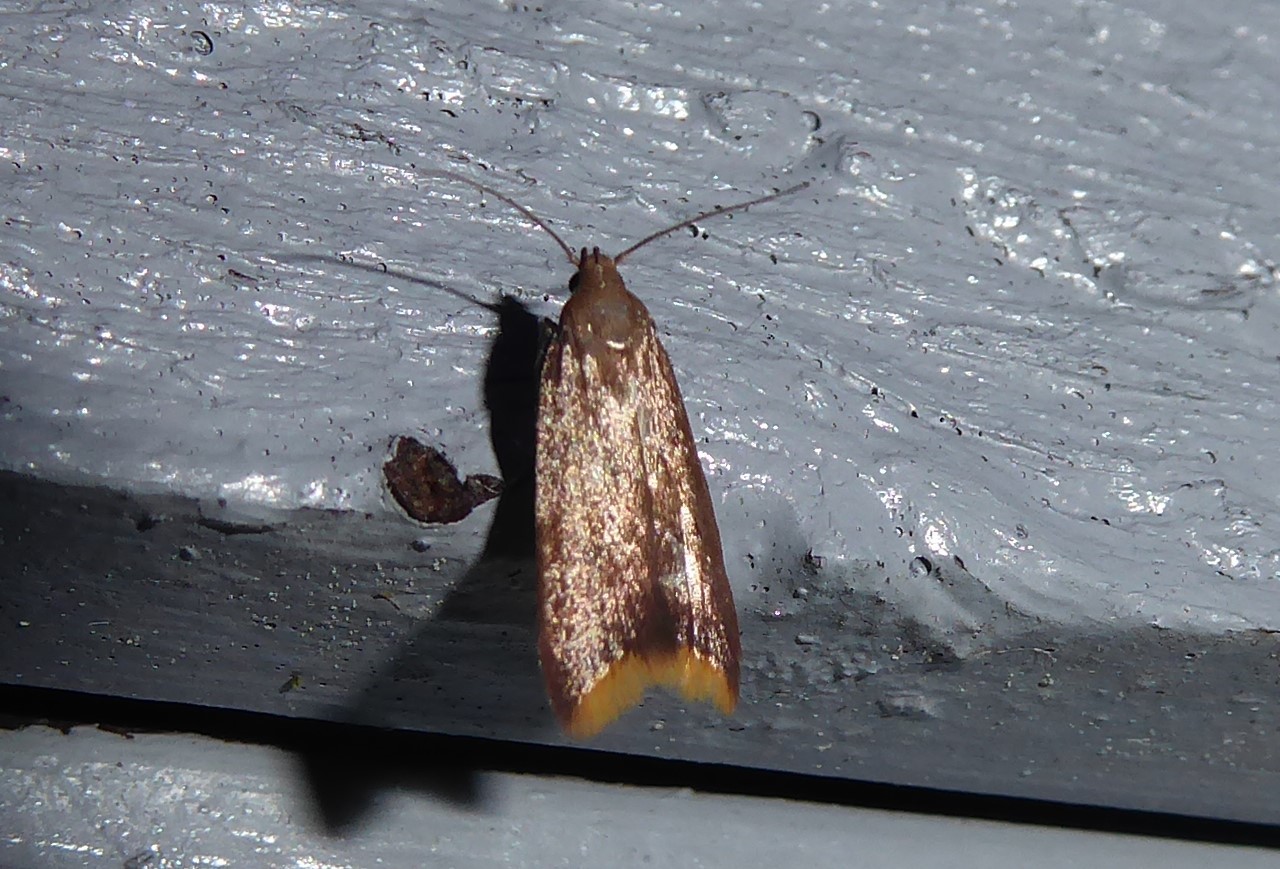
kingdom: Animalia
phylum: Arthropoda
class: Insecta
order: Lepidoptera
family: Oecophoridae
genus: Tachystola
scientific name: Tachystola acroxantha
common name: Ruddy streak
